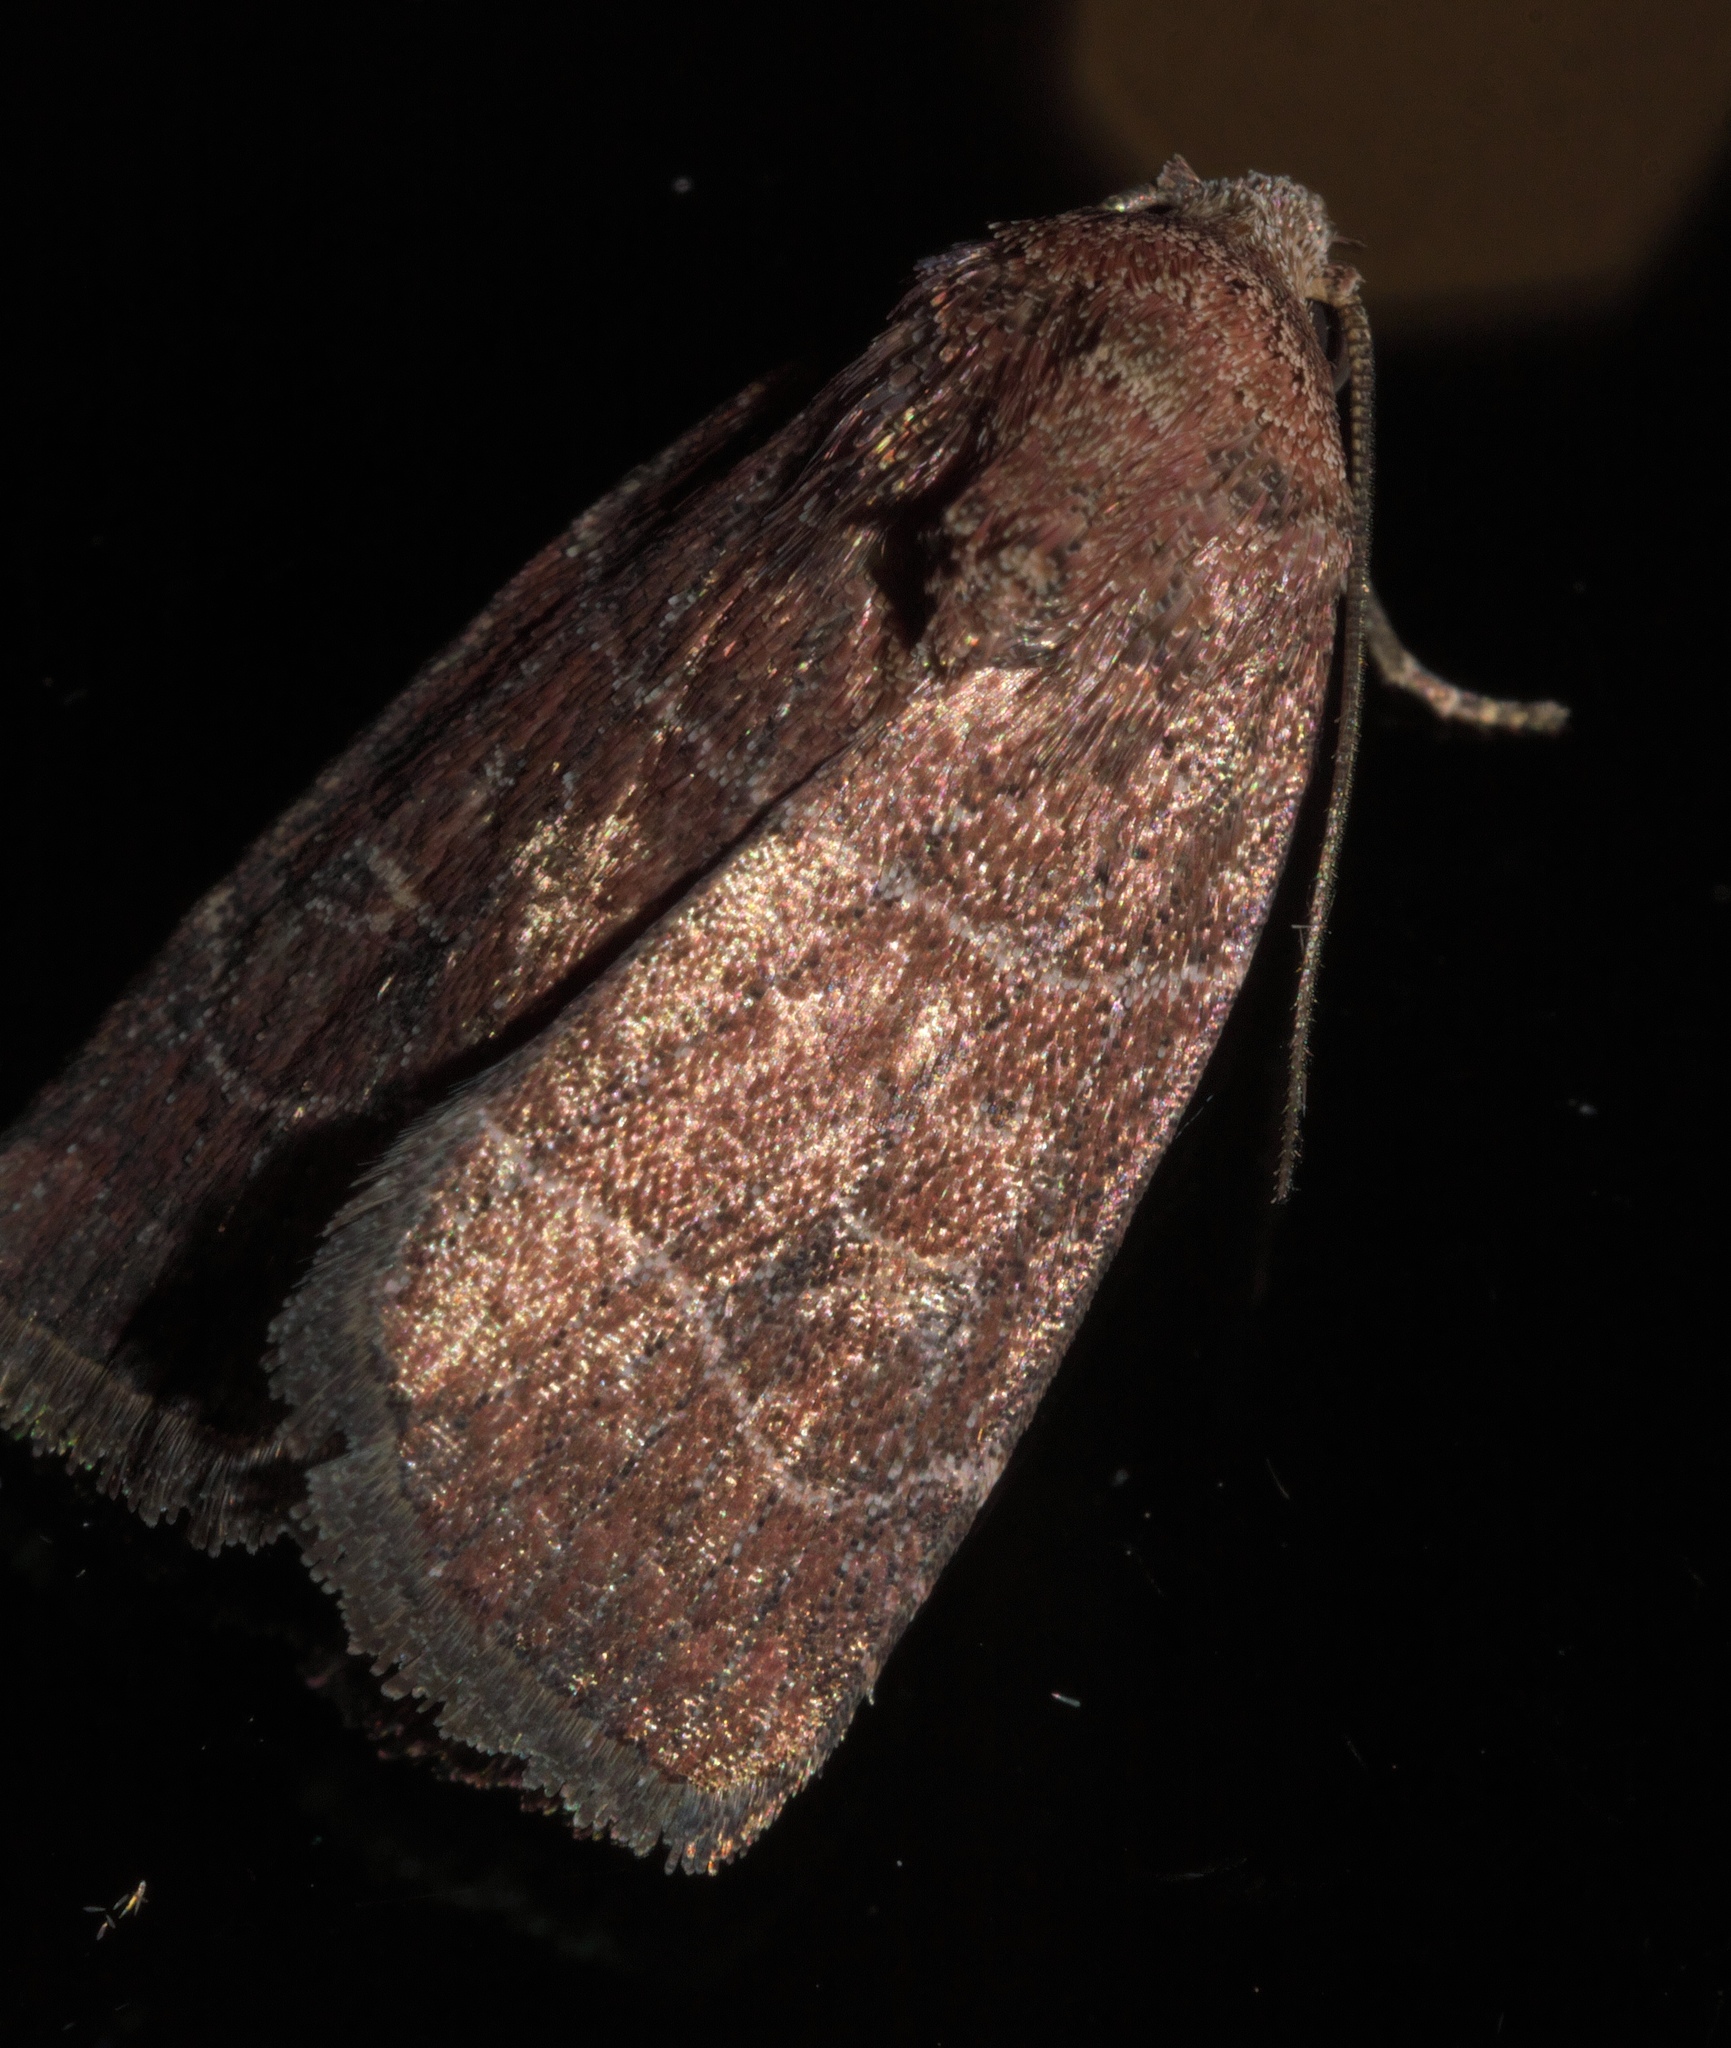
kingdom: Animalia
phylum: Arthropoda
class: Insecta
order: Lepidoptera
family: Noctuidae
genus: Elaphria
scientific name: Elaphria grata
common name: Grateful midget moth
